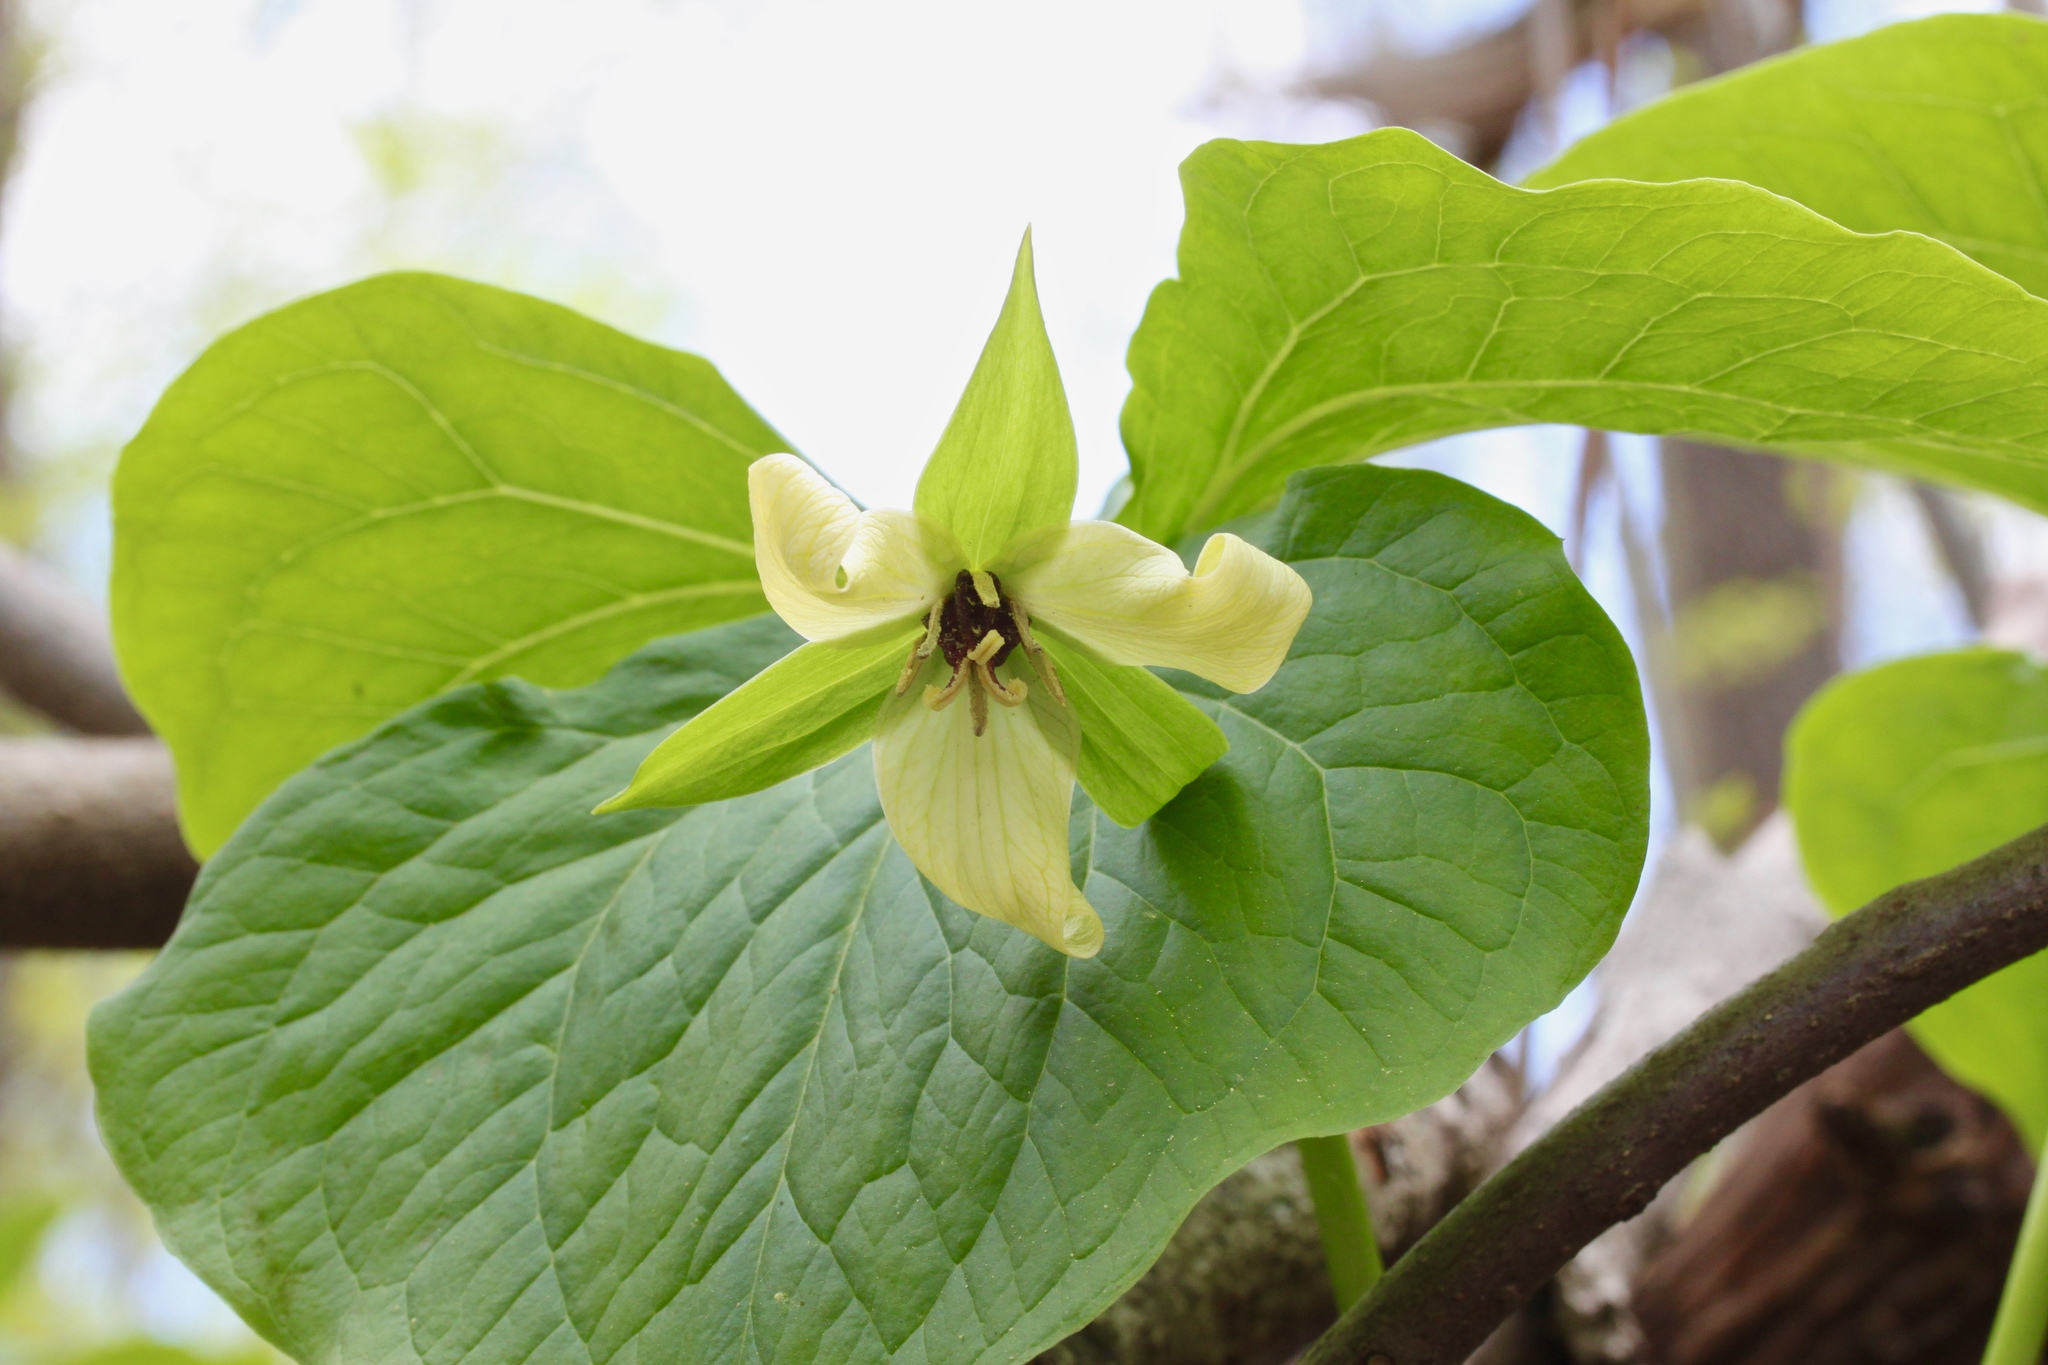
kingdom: Plantae
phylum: Tracheophyta
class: Liliopsida
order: Liliales
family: Melanthiaceae
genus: Trillium
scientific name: Trillium erectum
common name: Purple trillium
